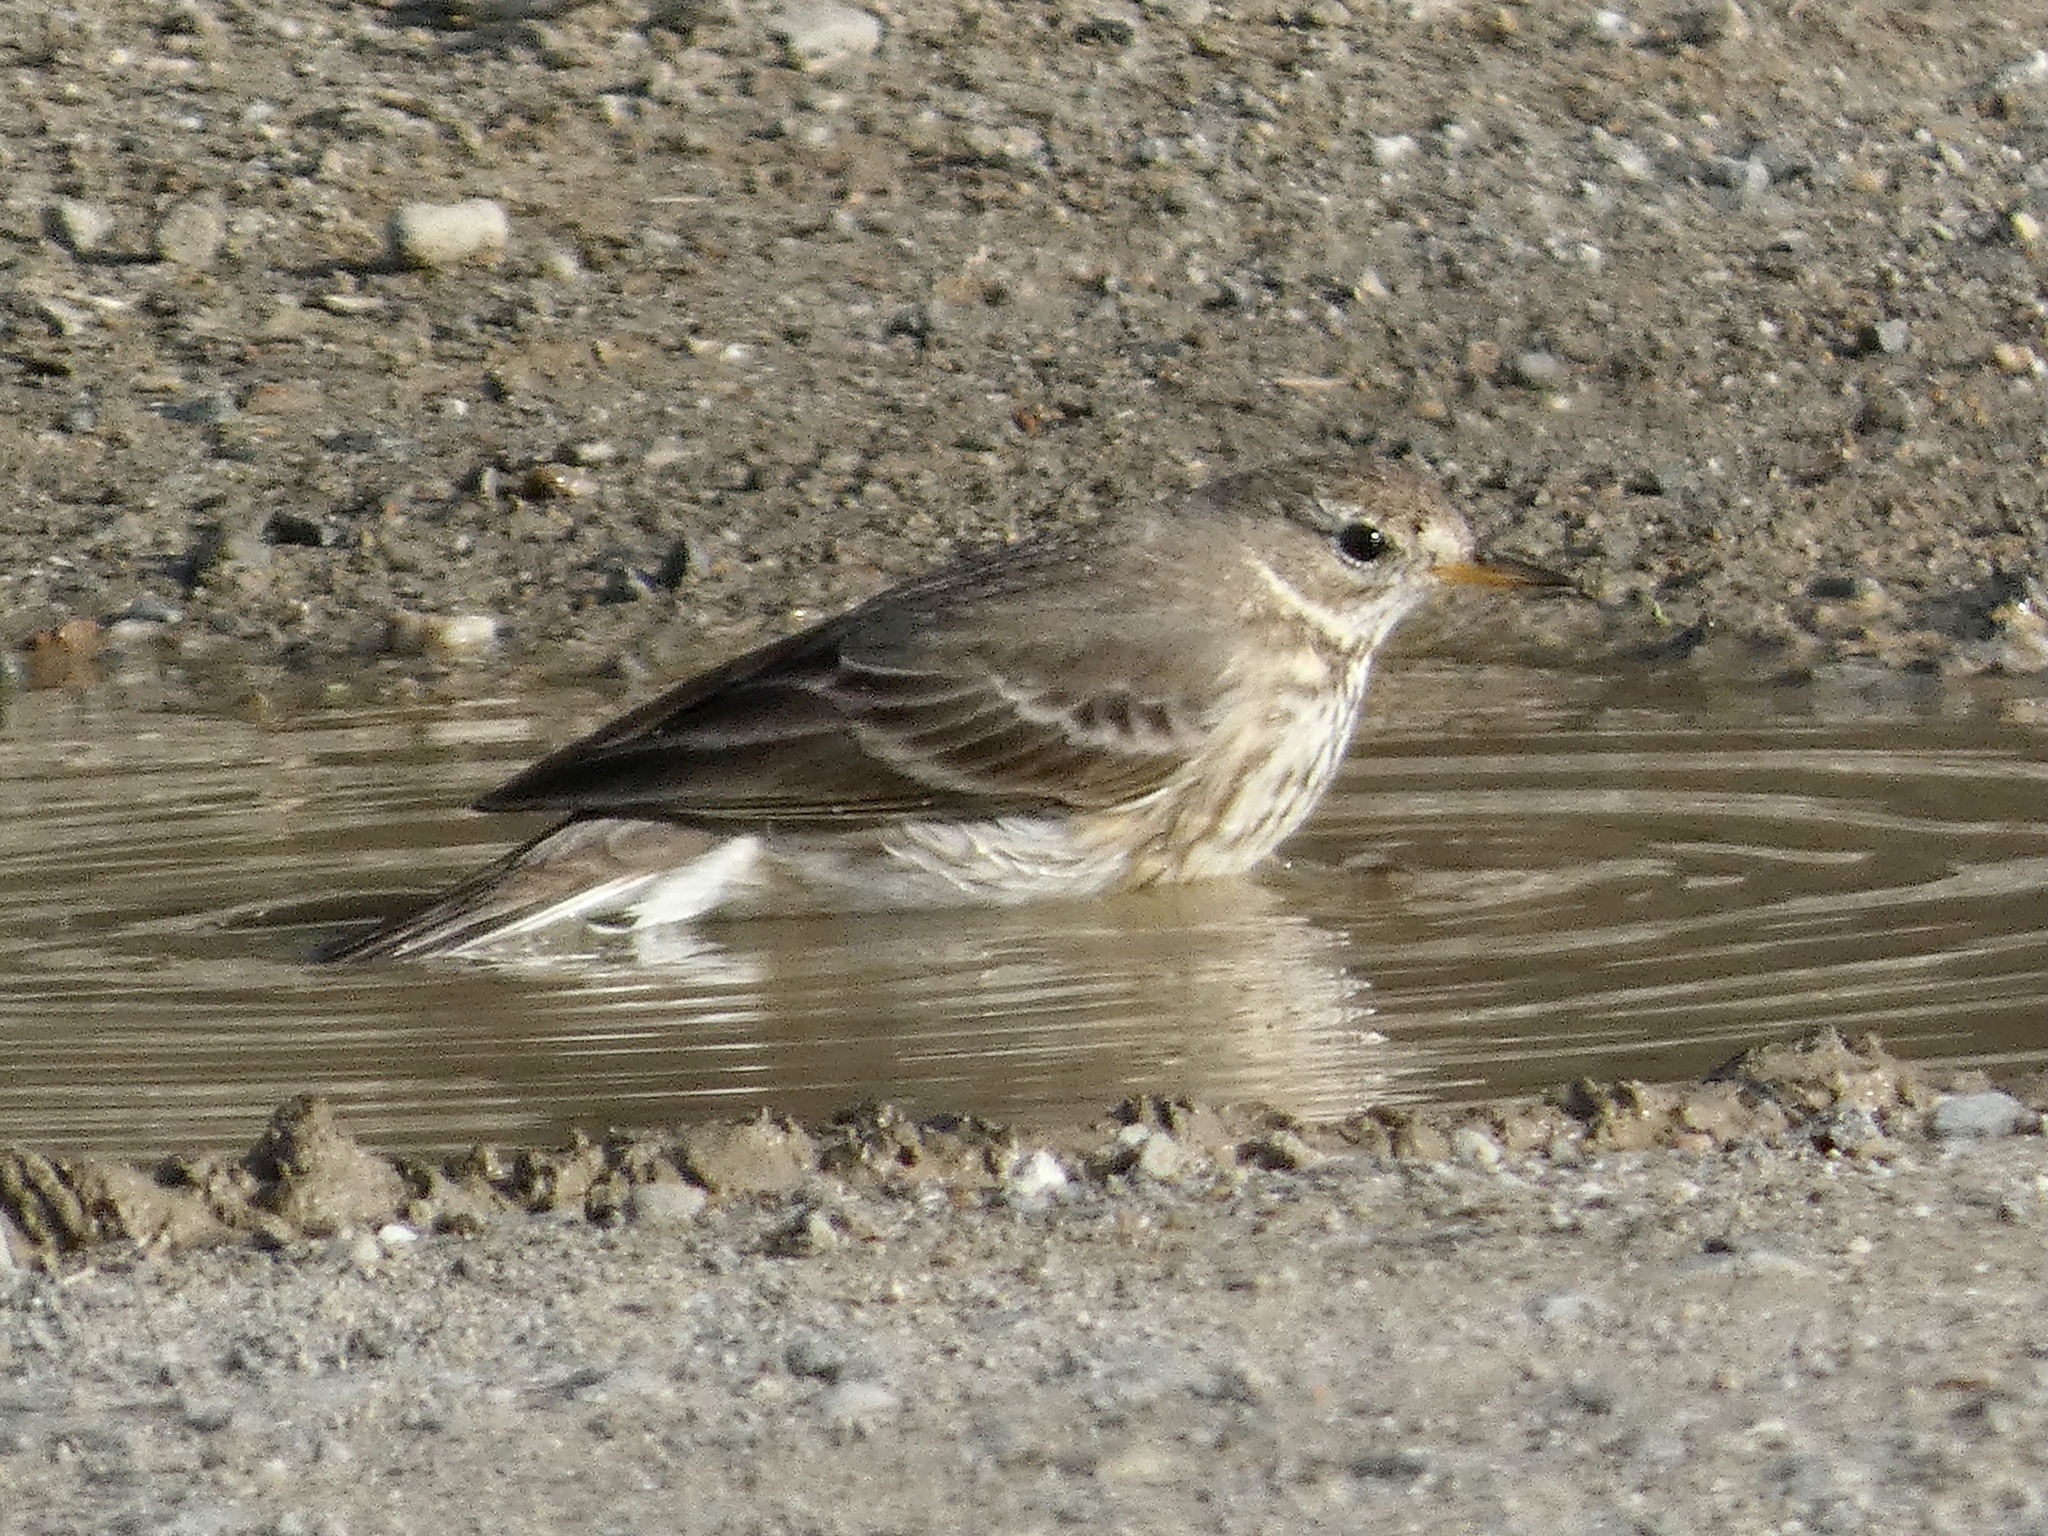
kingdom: Animalia
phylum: Chordata
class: Aves
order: Passeriformes
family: Motacillidae
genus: Anthus
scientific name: Anthus rubescens
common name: Buff-bellied pipit
